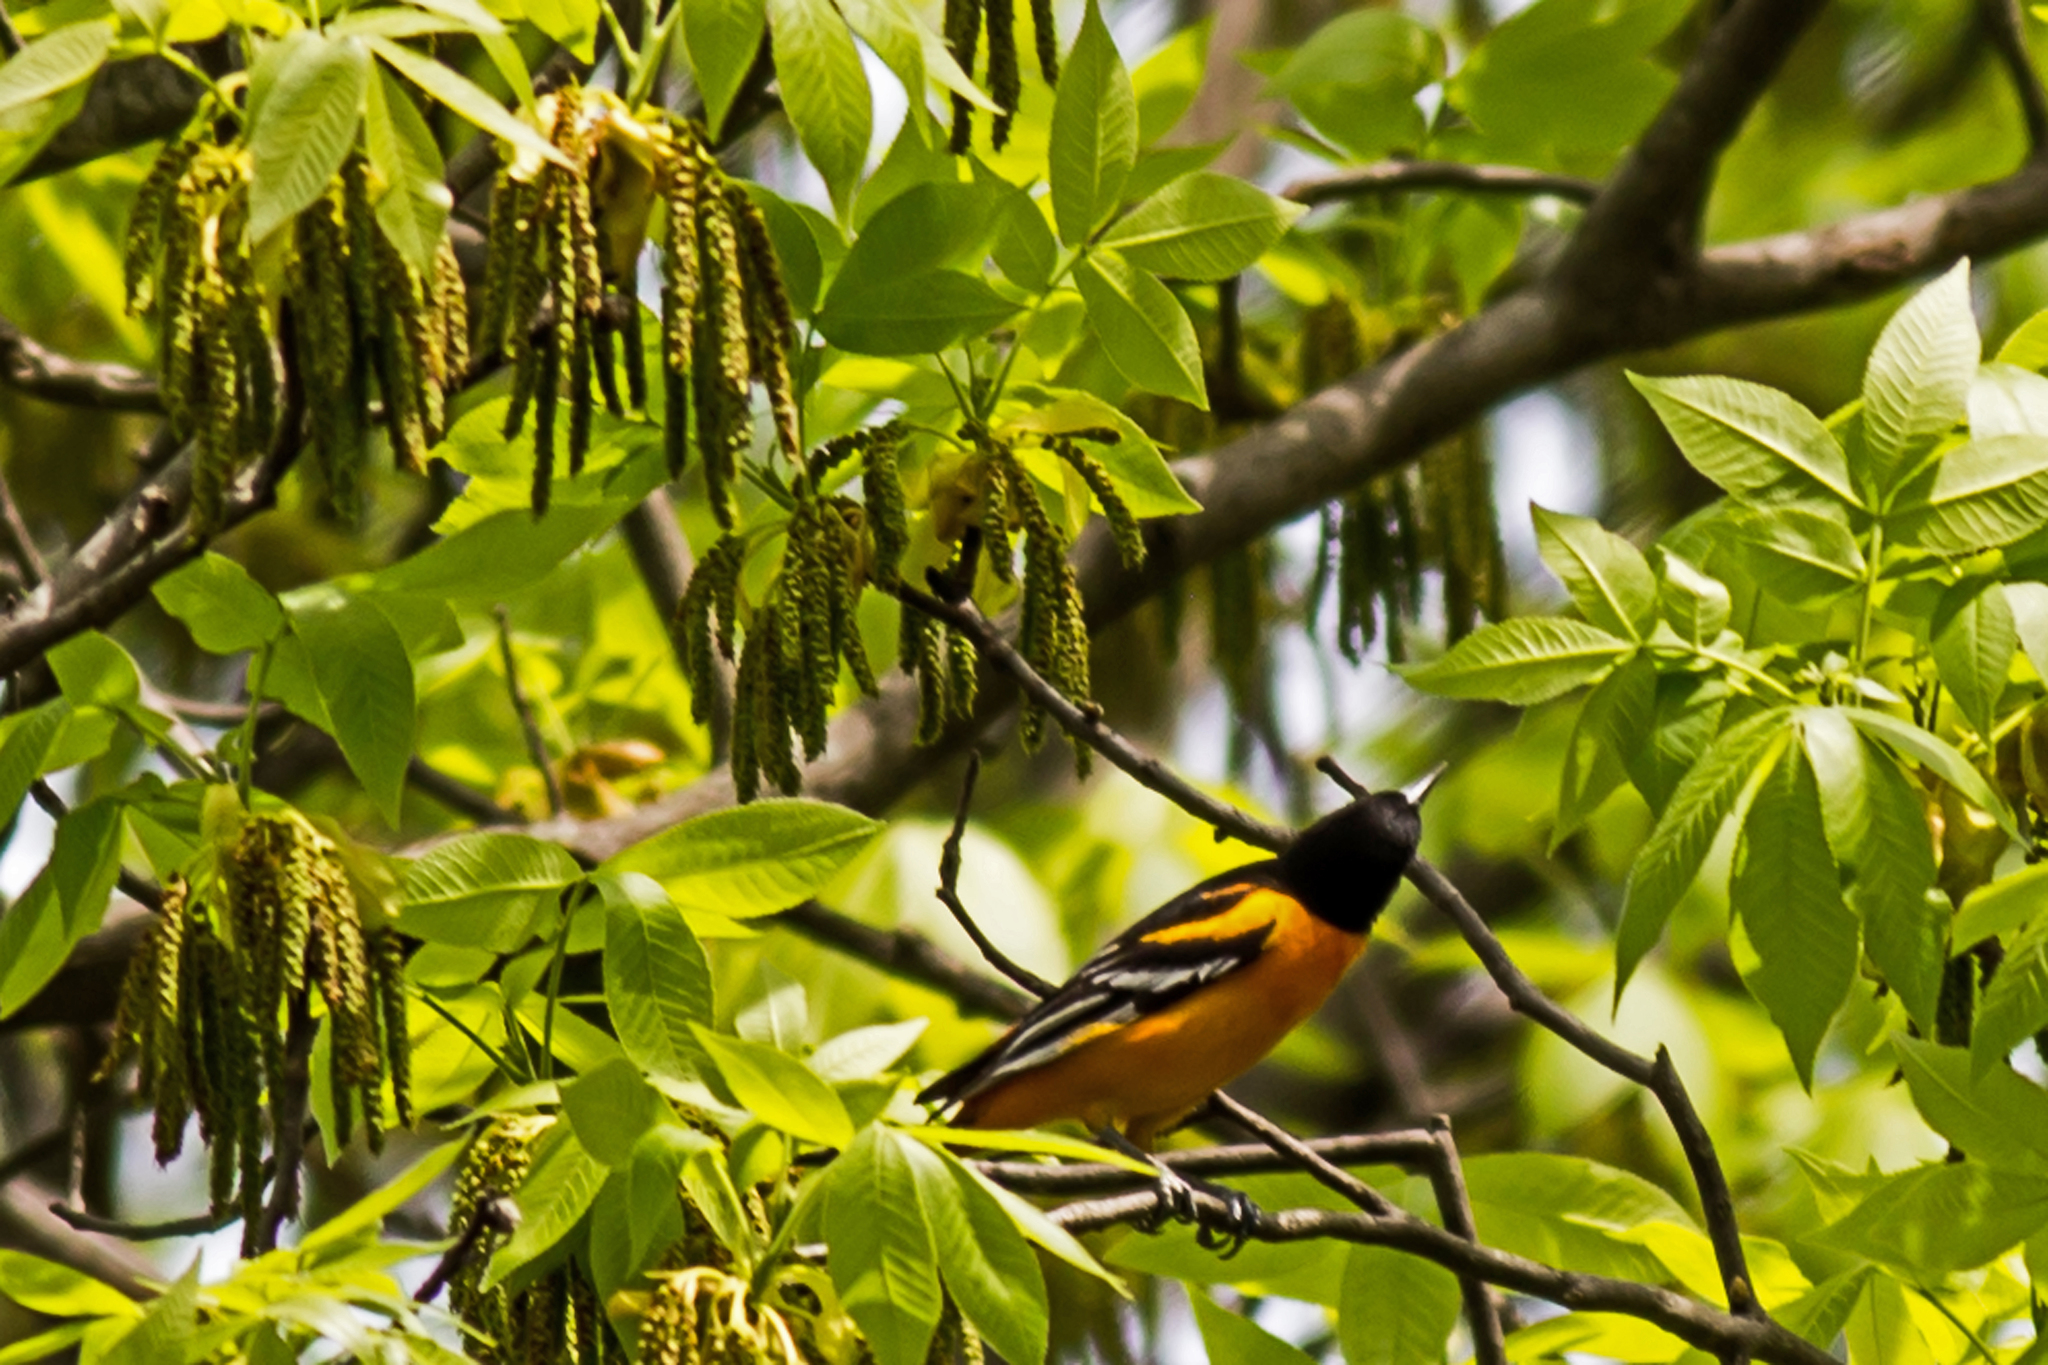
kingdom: Animalia
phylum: Chordata
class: Aves
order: Passeriformes
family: Icteridae
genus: Icterus
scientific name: Icterus galbula
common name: Baltimore oriole
